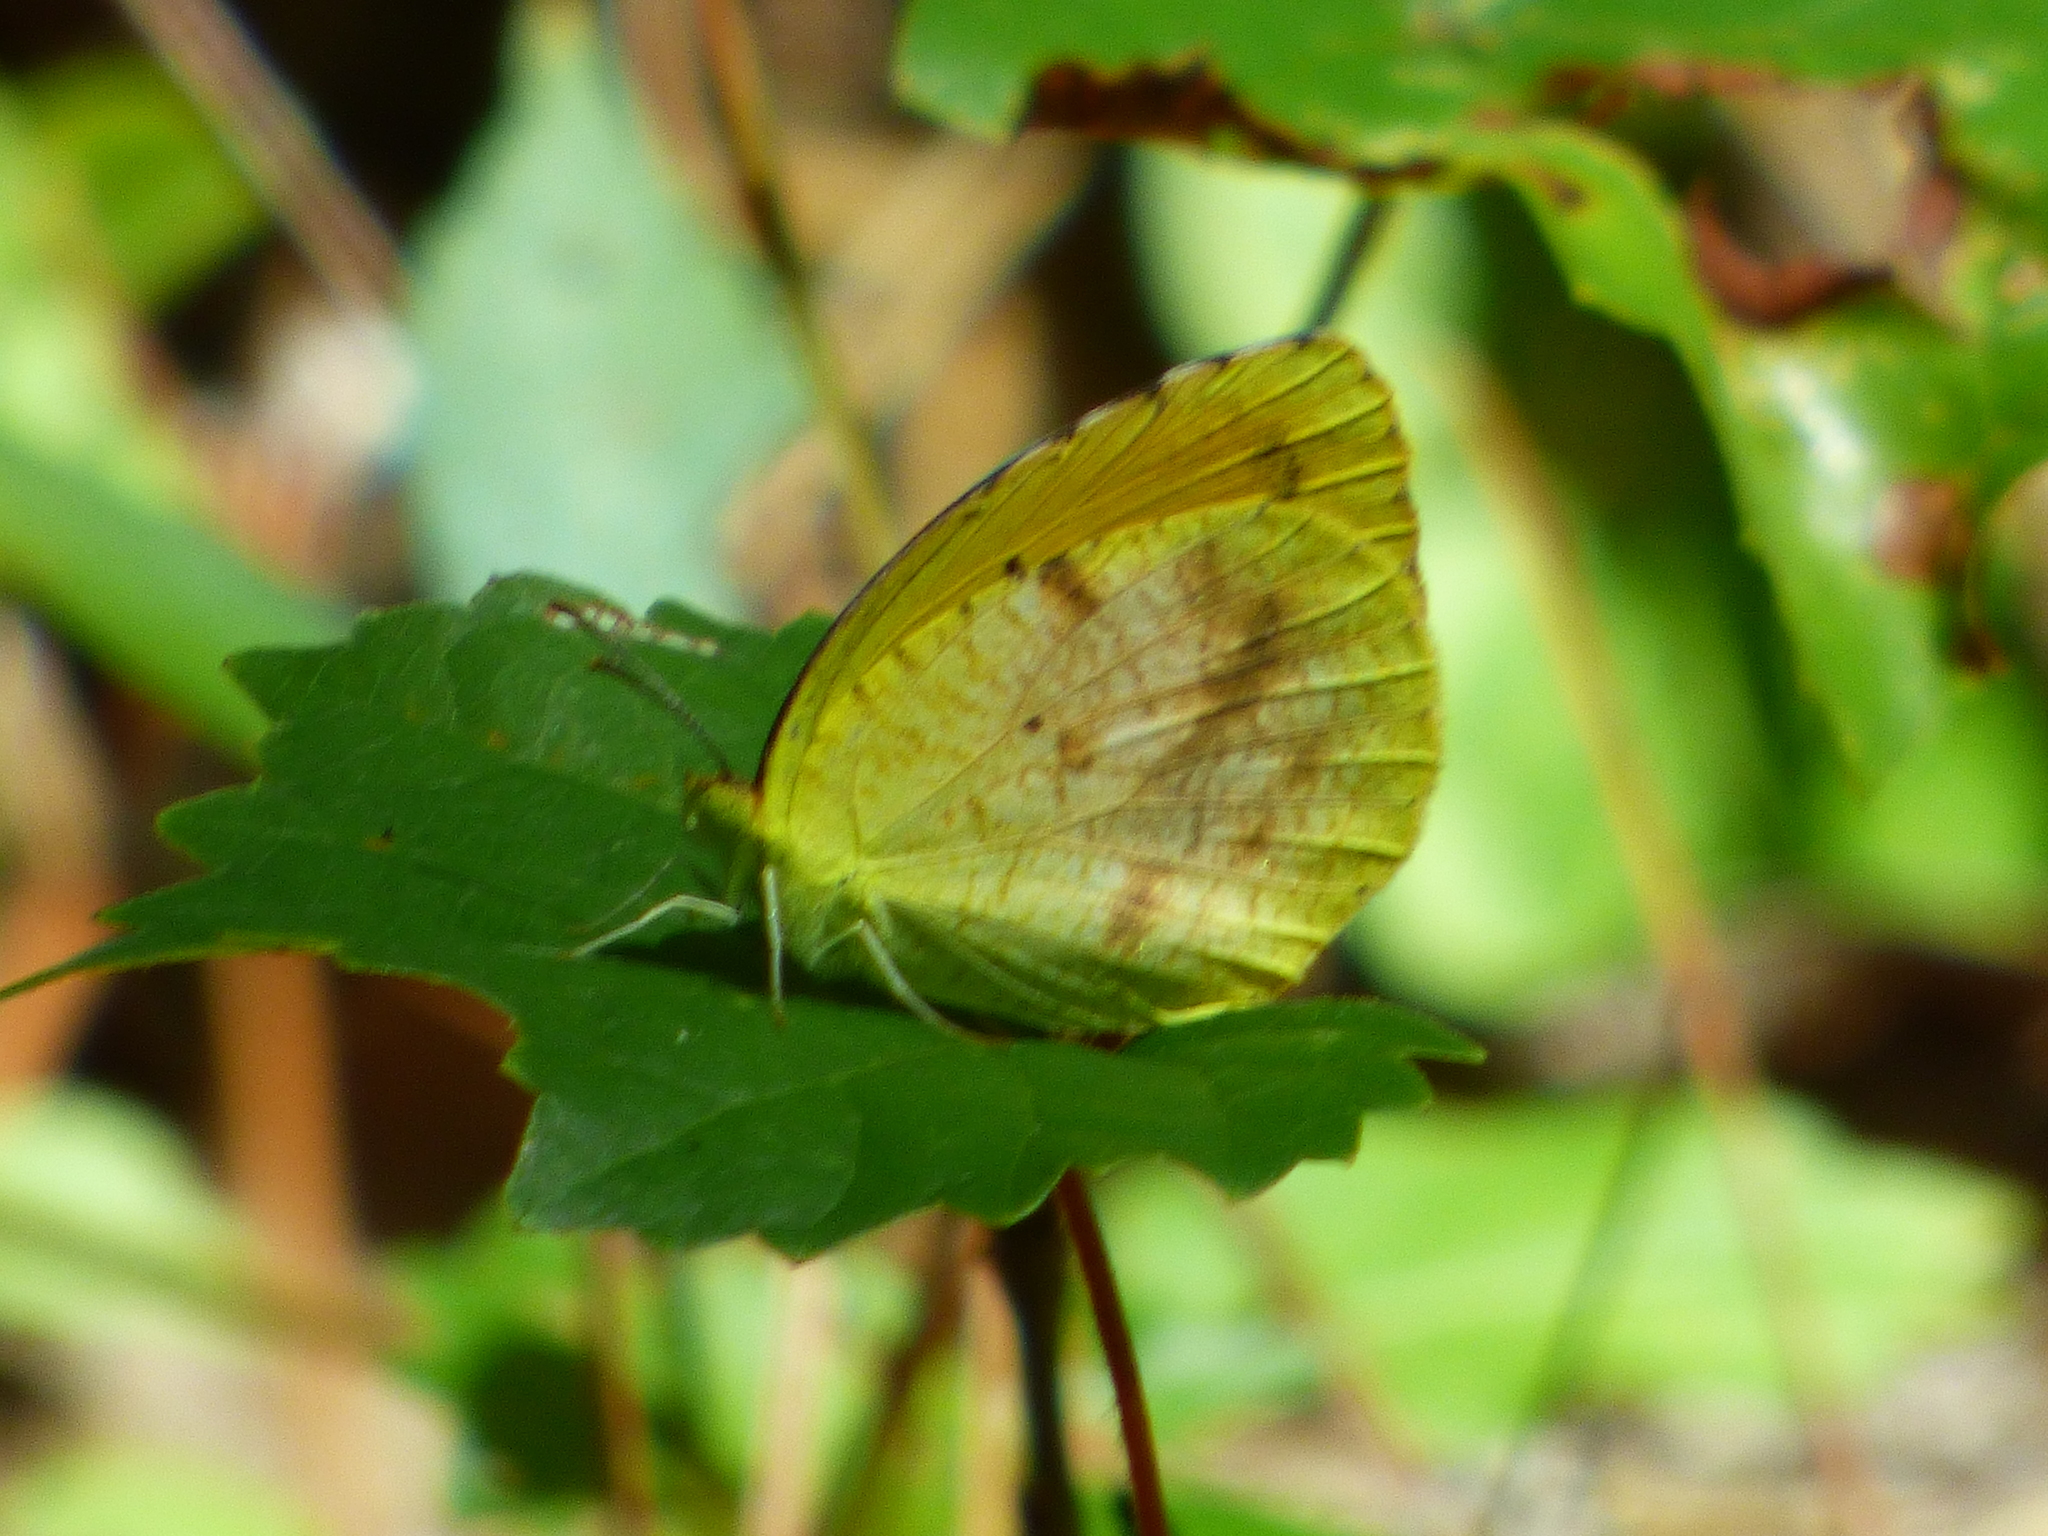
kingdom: Animalia
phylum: Arthropoda
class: Insecta
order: Lepidoptera
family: Pieridae
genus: Abaeis
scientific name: Abaeis nicippe
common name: Sleepy orange
